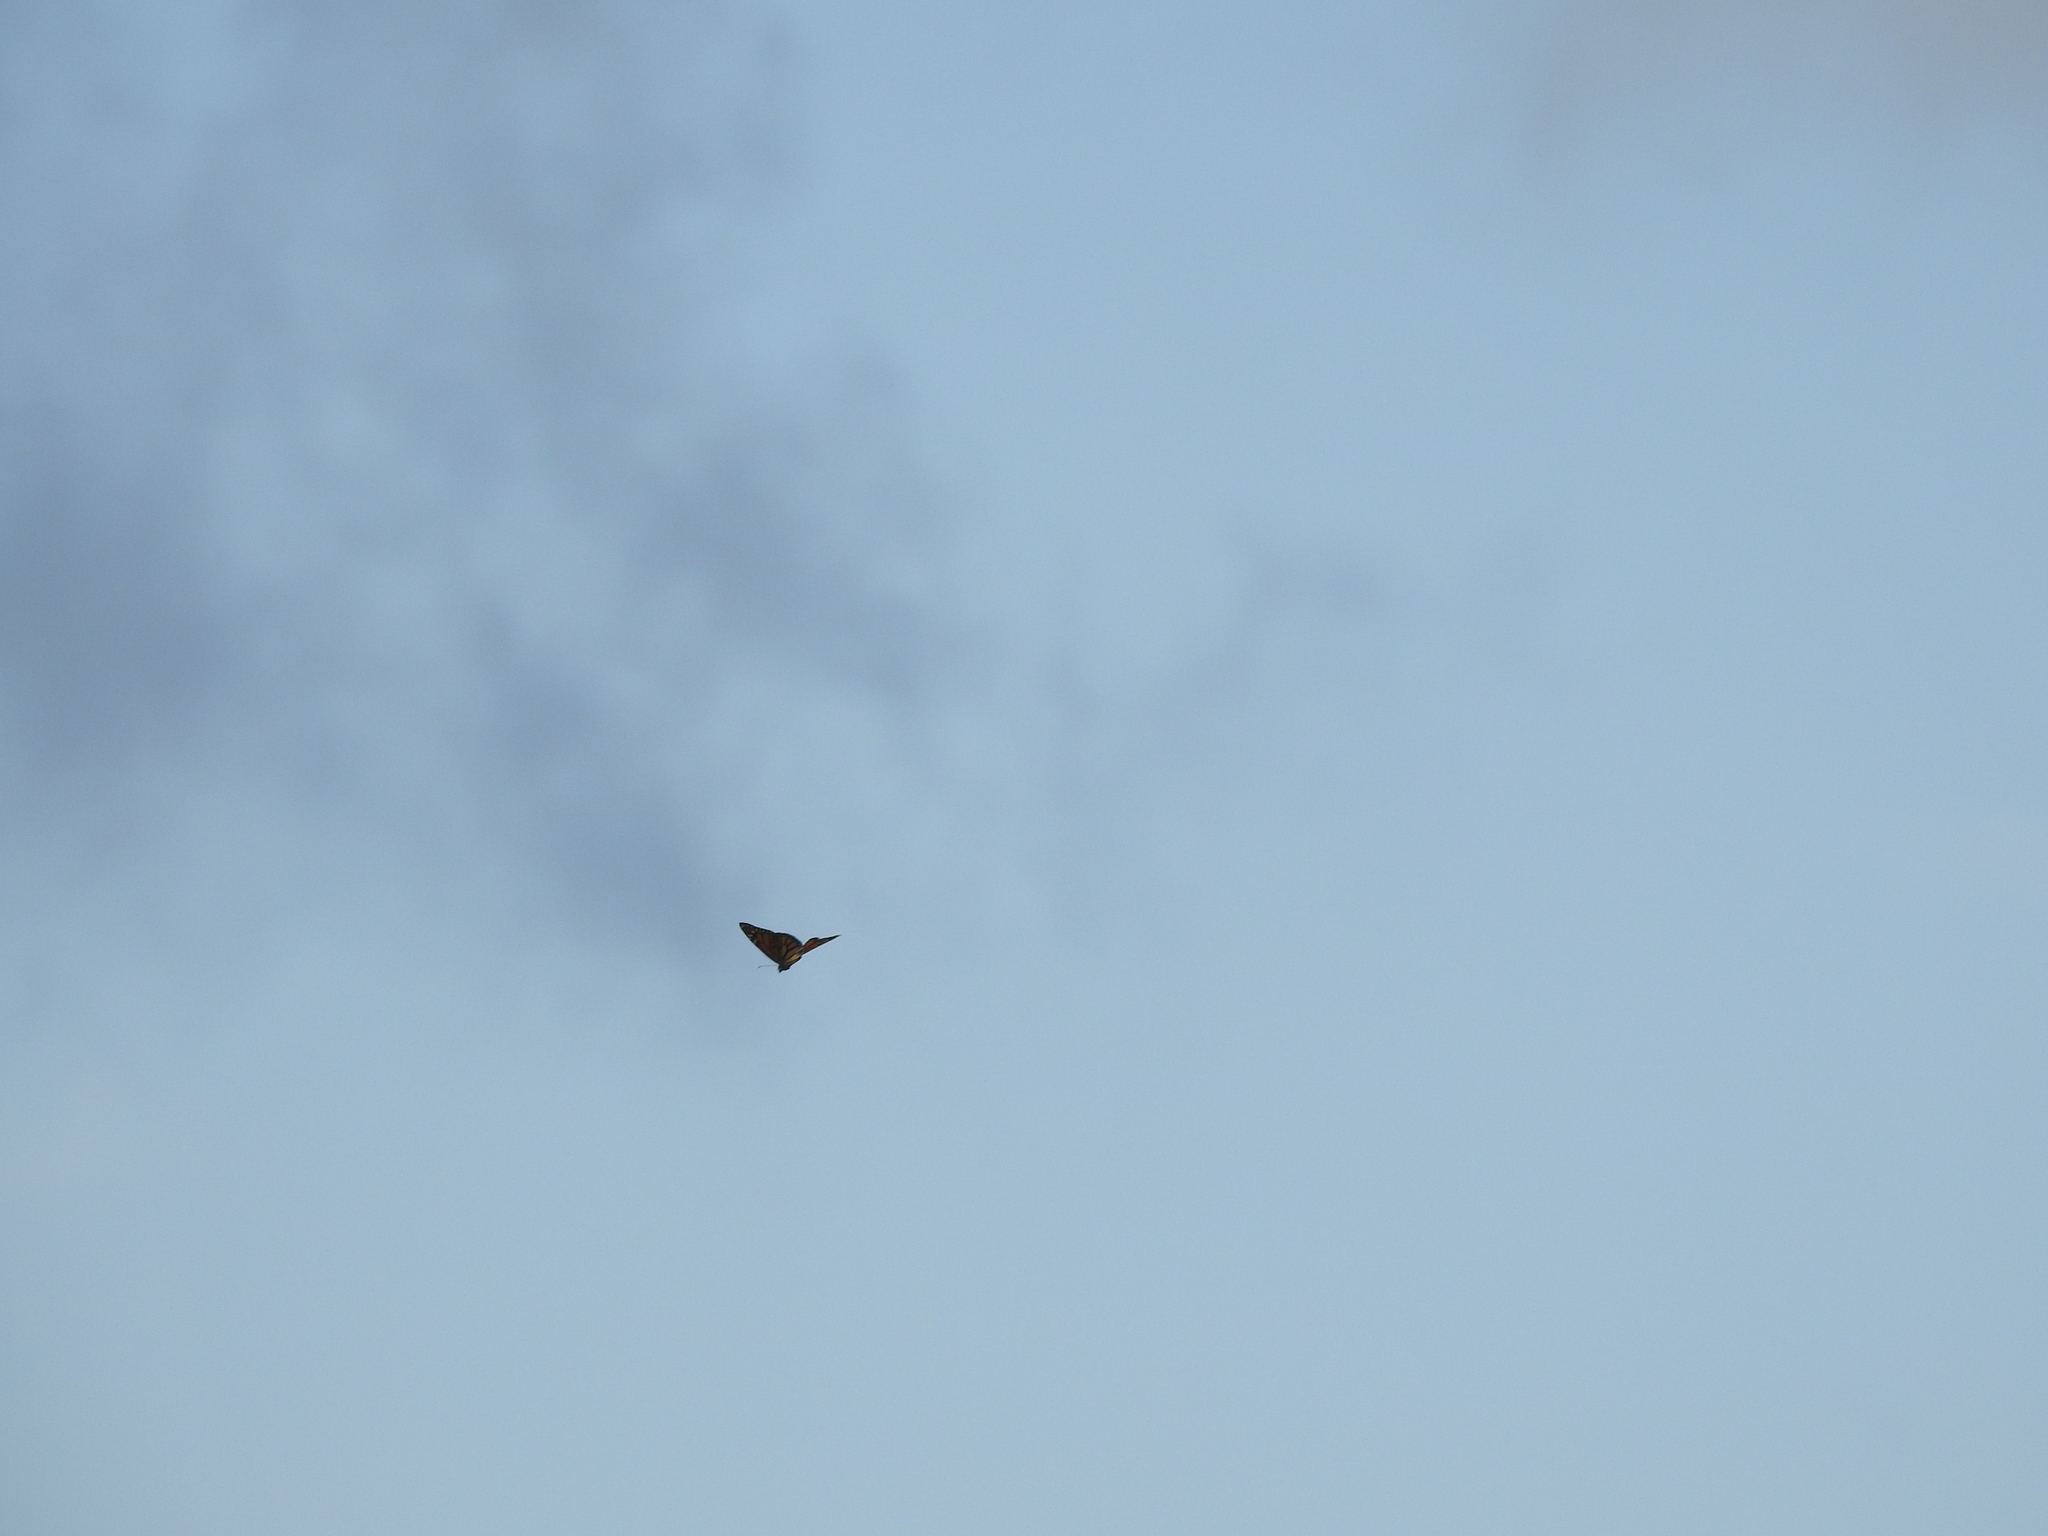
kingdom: Animalia
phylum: Arthropoda
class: Insecta
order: Lepidoptera
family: Nymphalidae
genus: Danaus
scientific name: Danaus plexippus
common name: Monarch
